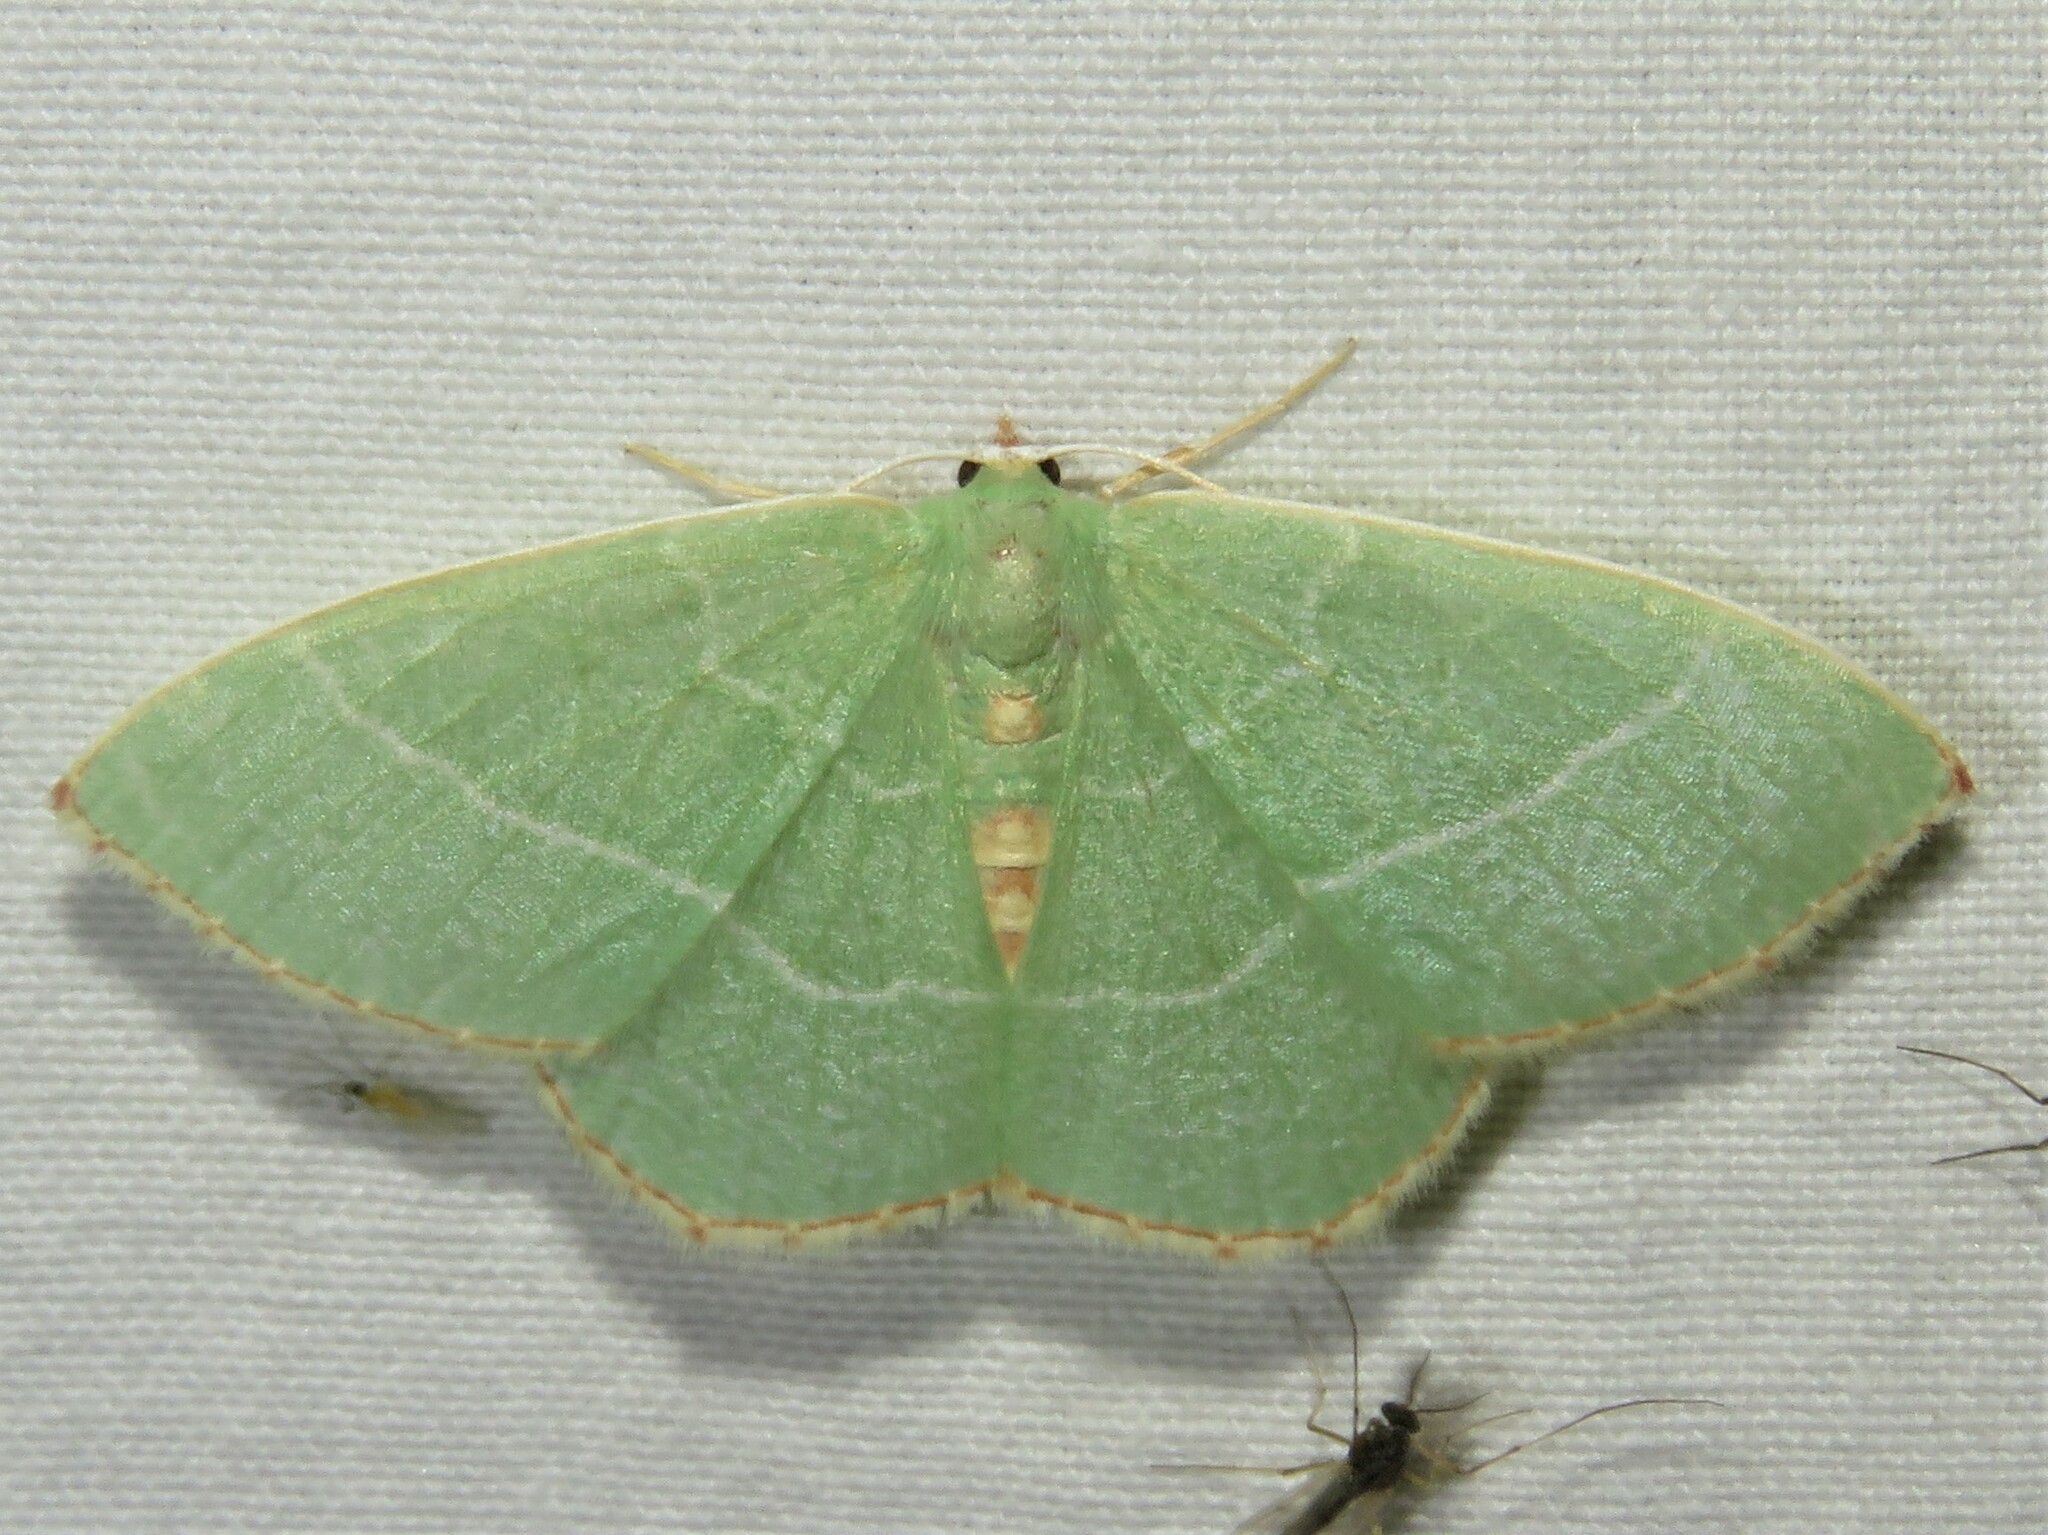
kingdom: Animalia
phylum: Arthropoda
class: Insecta
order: Lepidoptera
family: Geometridae
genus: Nemoria
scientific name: Nemoria bistriaria
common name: Red-fringed emerald
